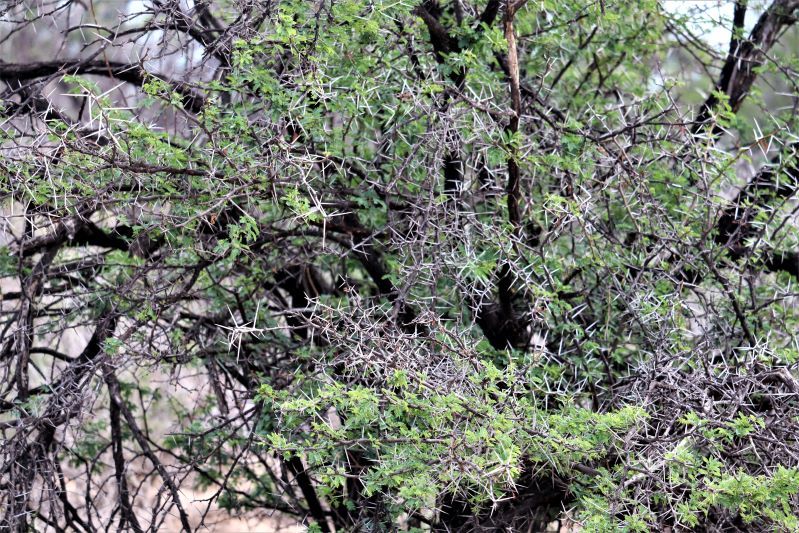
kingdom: Plantae
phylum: Tracheophyta
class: Magnoliopsida
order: Fabales
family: Fabaceae
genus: Vachellia
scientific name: Vachellia karroo
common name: Sweet thorn
